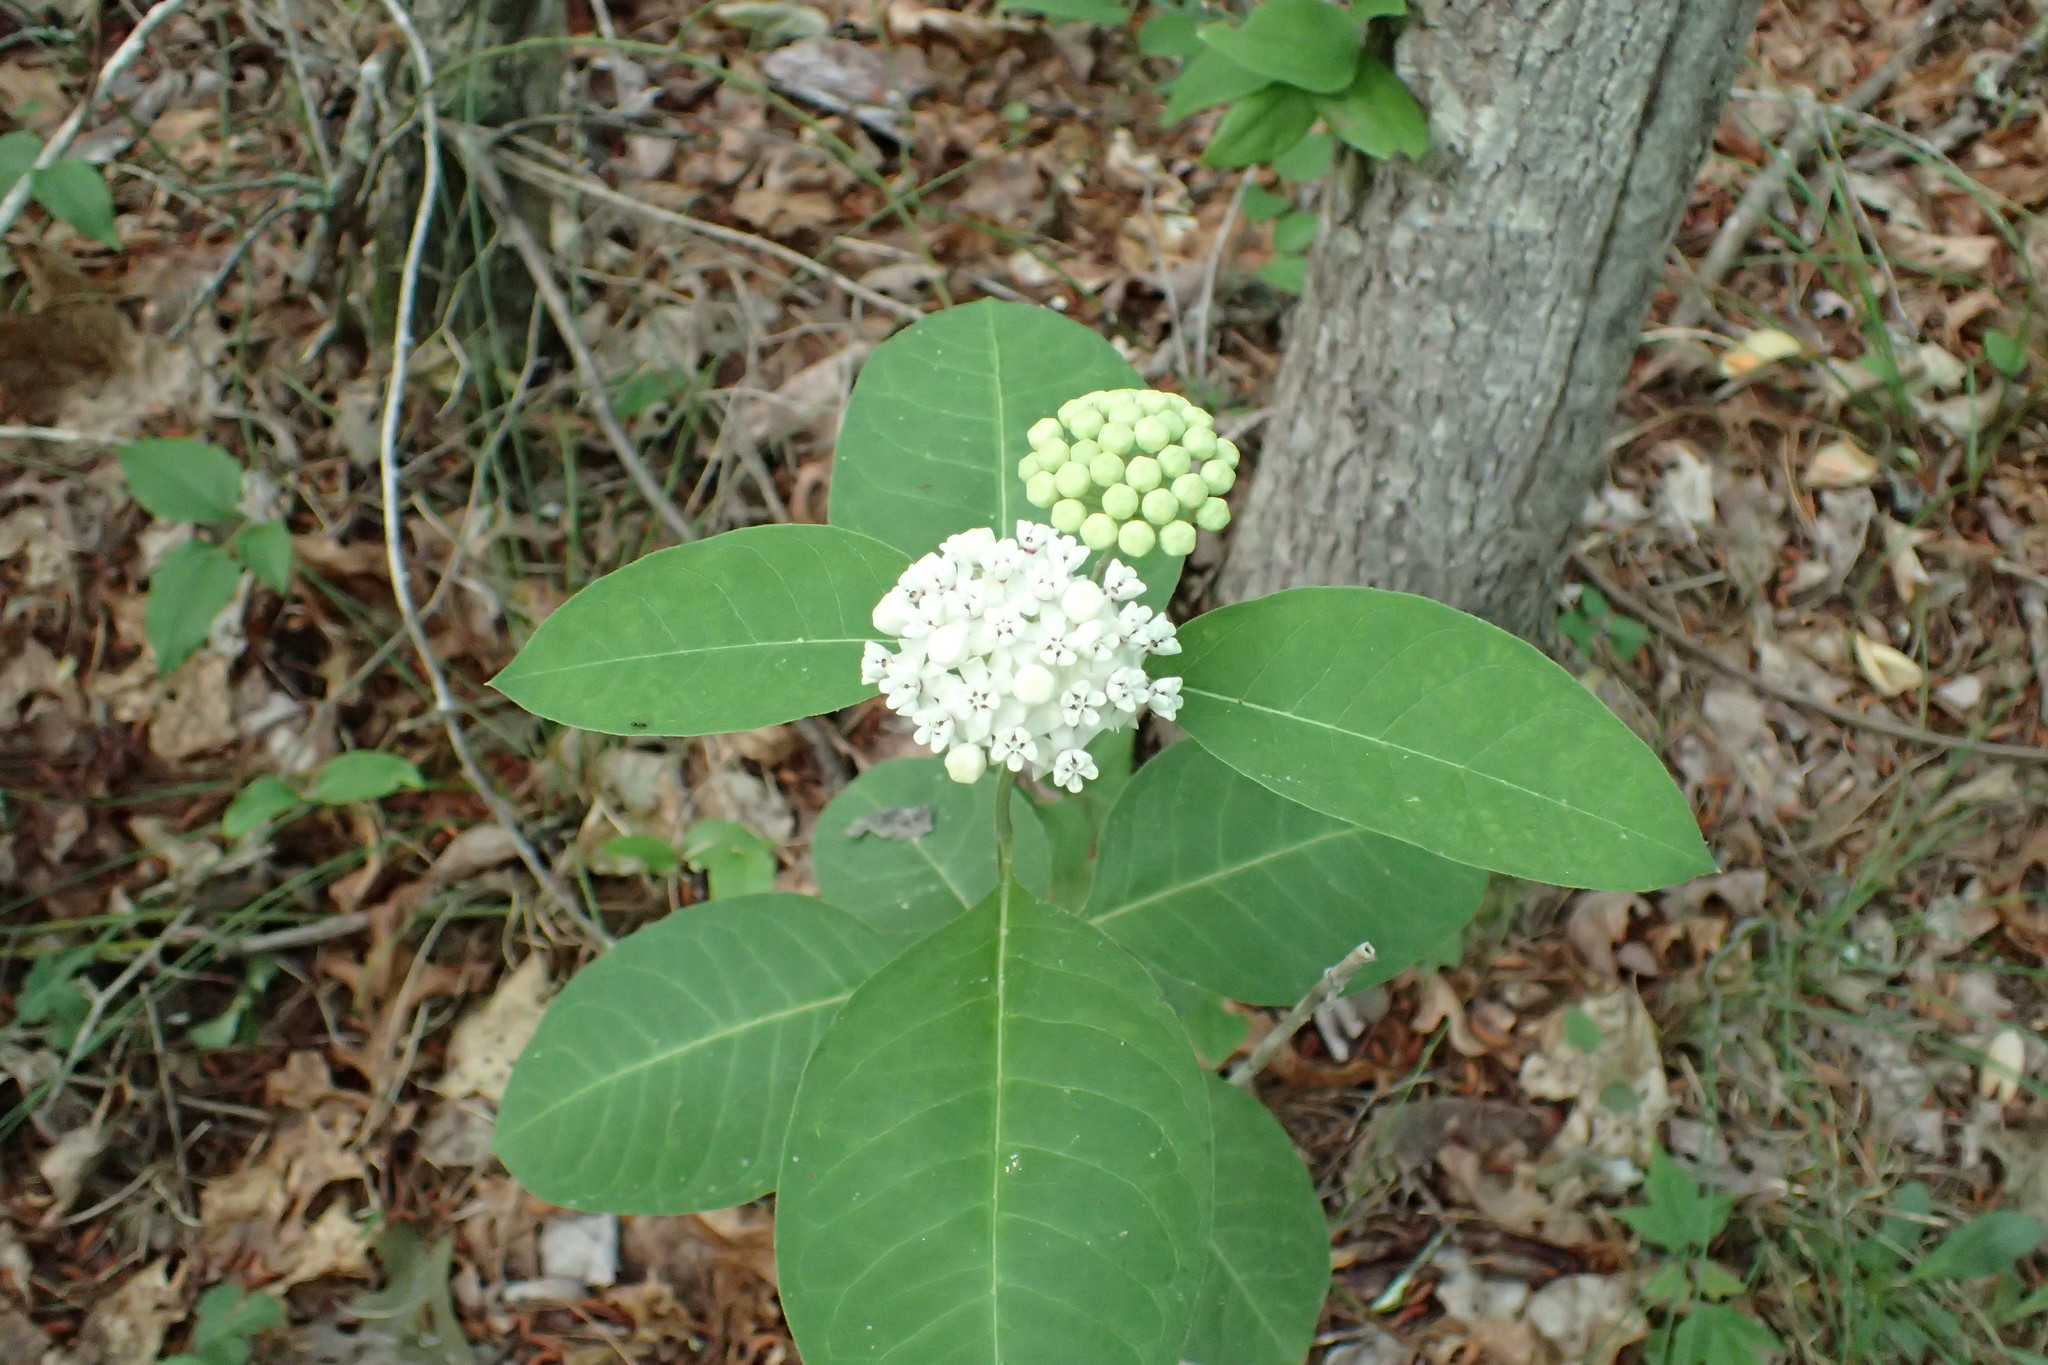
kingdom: Plantae
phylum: Tracheophyta
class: Magnoliopsida
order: Gentianales
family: Apocynaceae
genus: Asclepias
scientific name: Asclepias variegata
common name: Variegated milkweed
